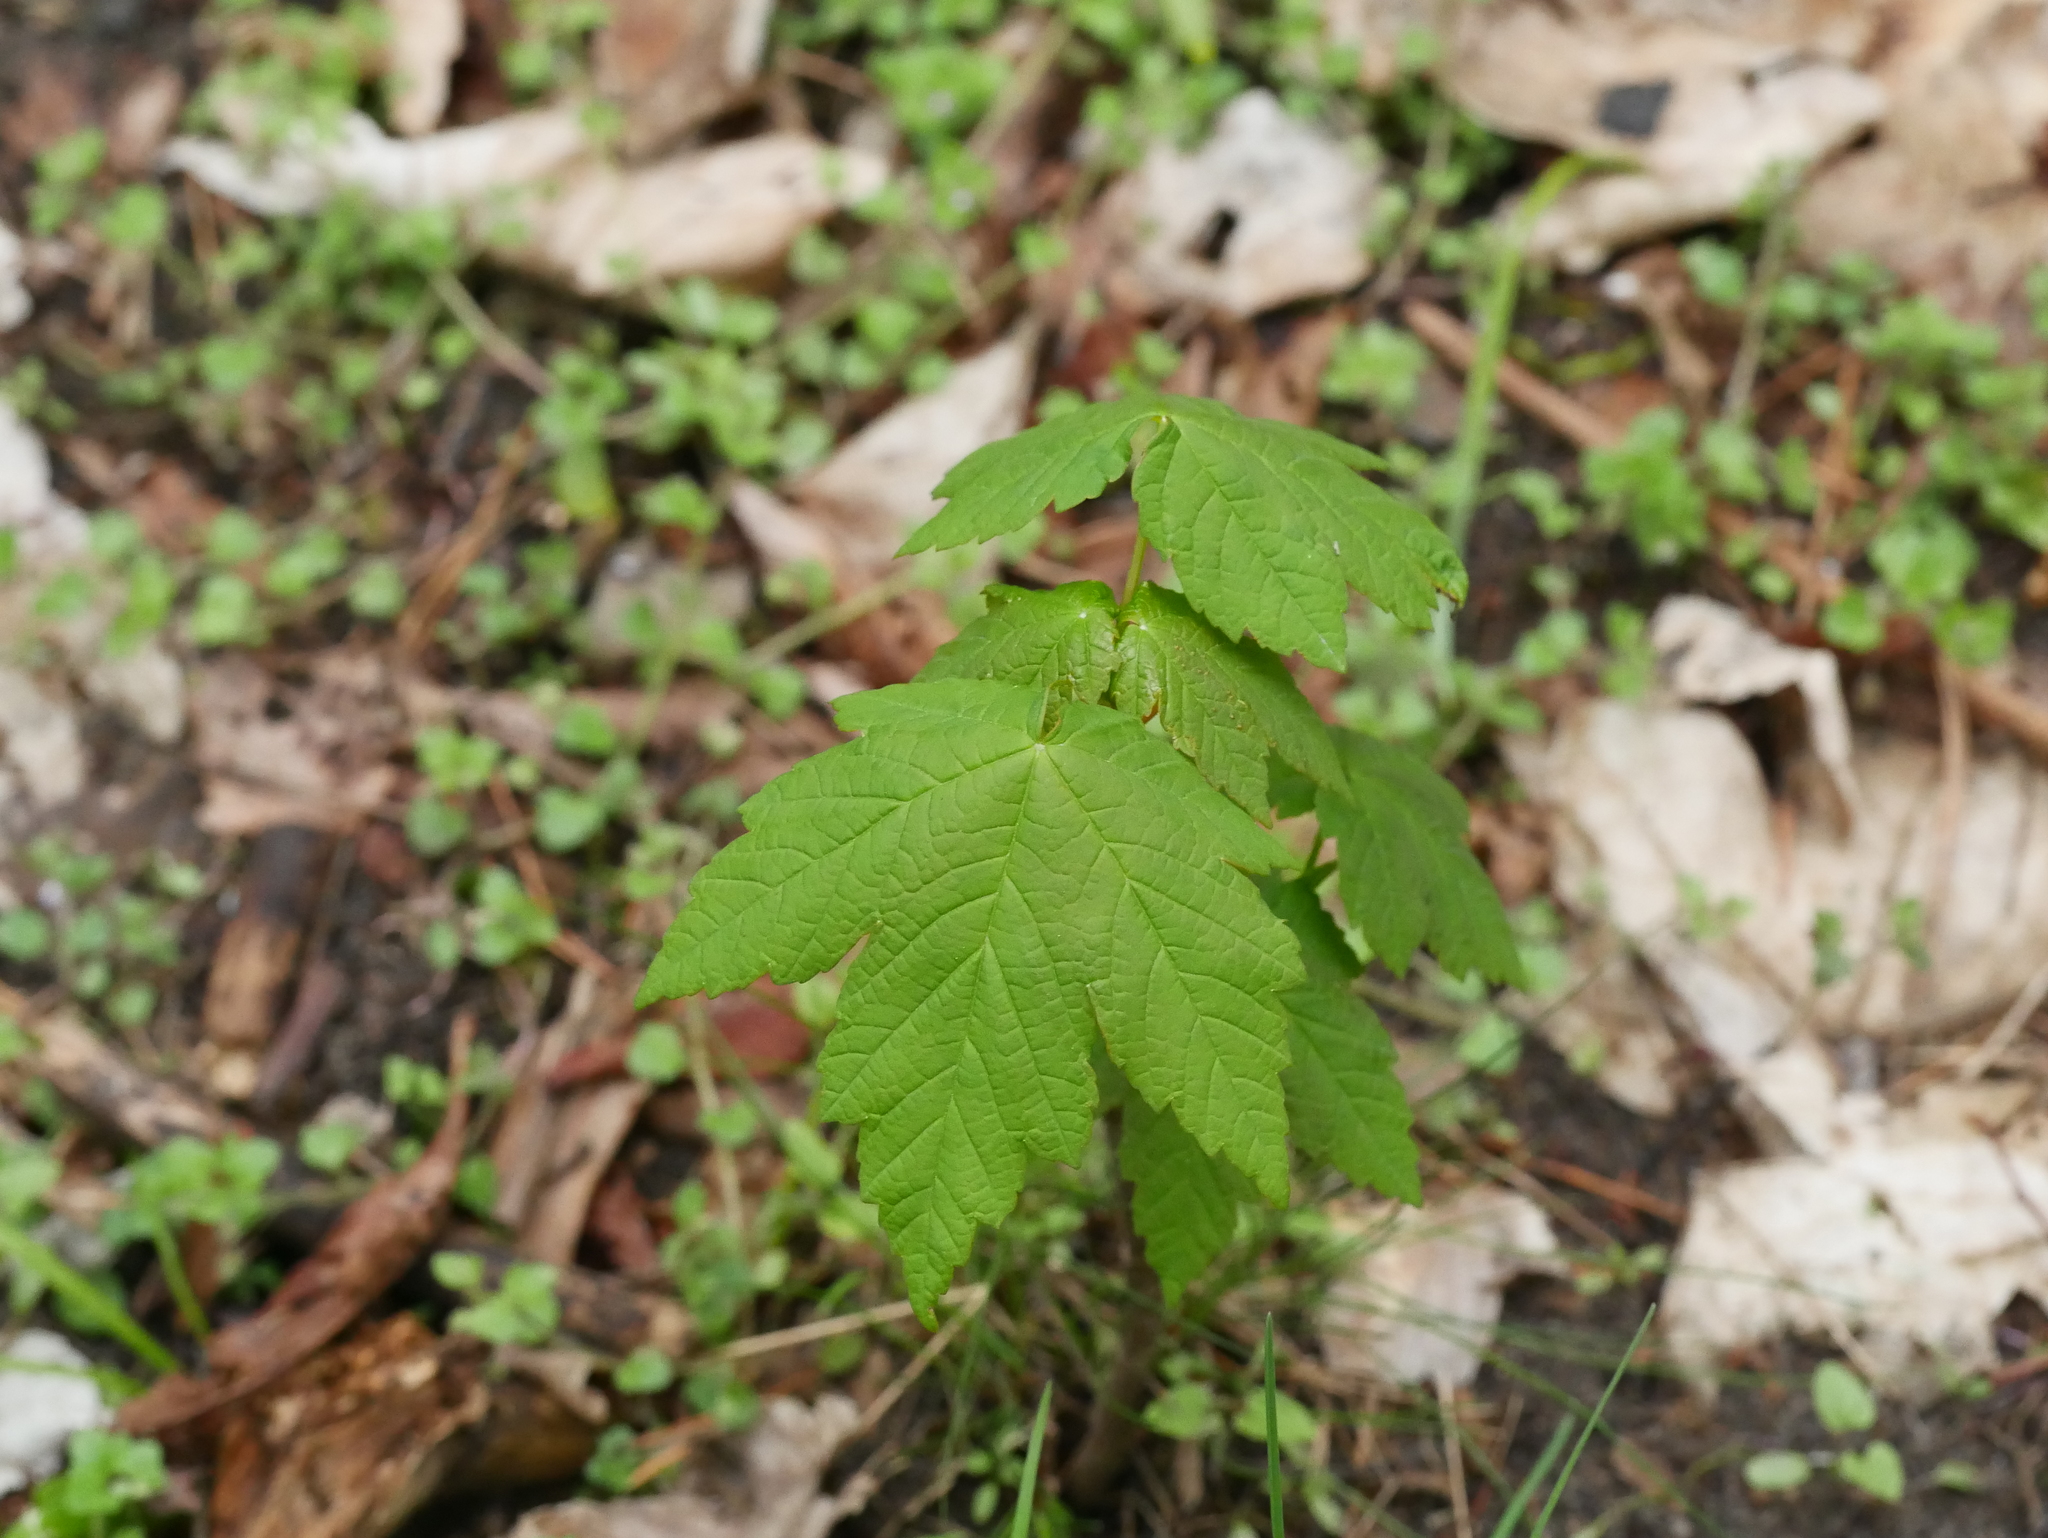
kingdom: Plantae
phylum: Tracheophyta
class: Magnoliopsida
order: Sapindales
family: Sapindaceae
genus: Acer
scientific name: Acer pseudoplatanus
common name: Sycamore
